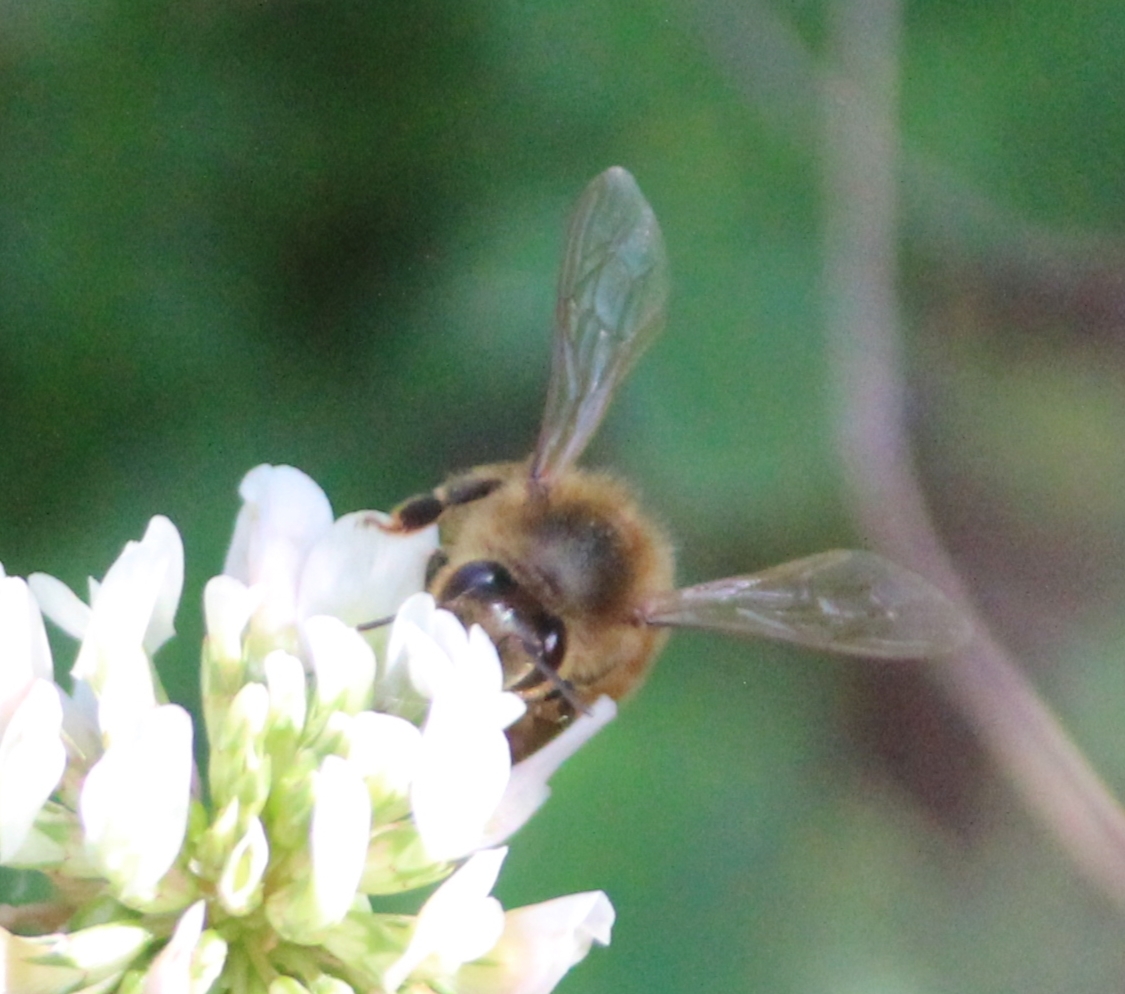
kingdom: Animalia
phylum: Arthropoda
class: Insecta
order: Hymenoptera
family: Apidae
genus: Apis
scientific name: Apis mellifera
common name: Honey bee
